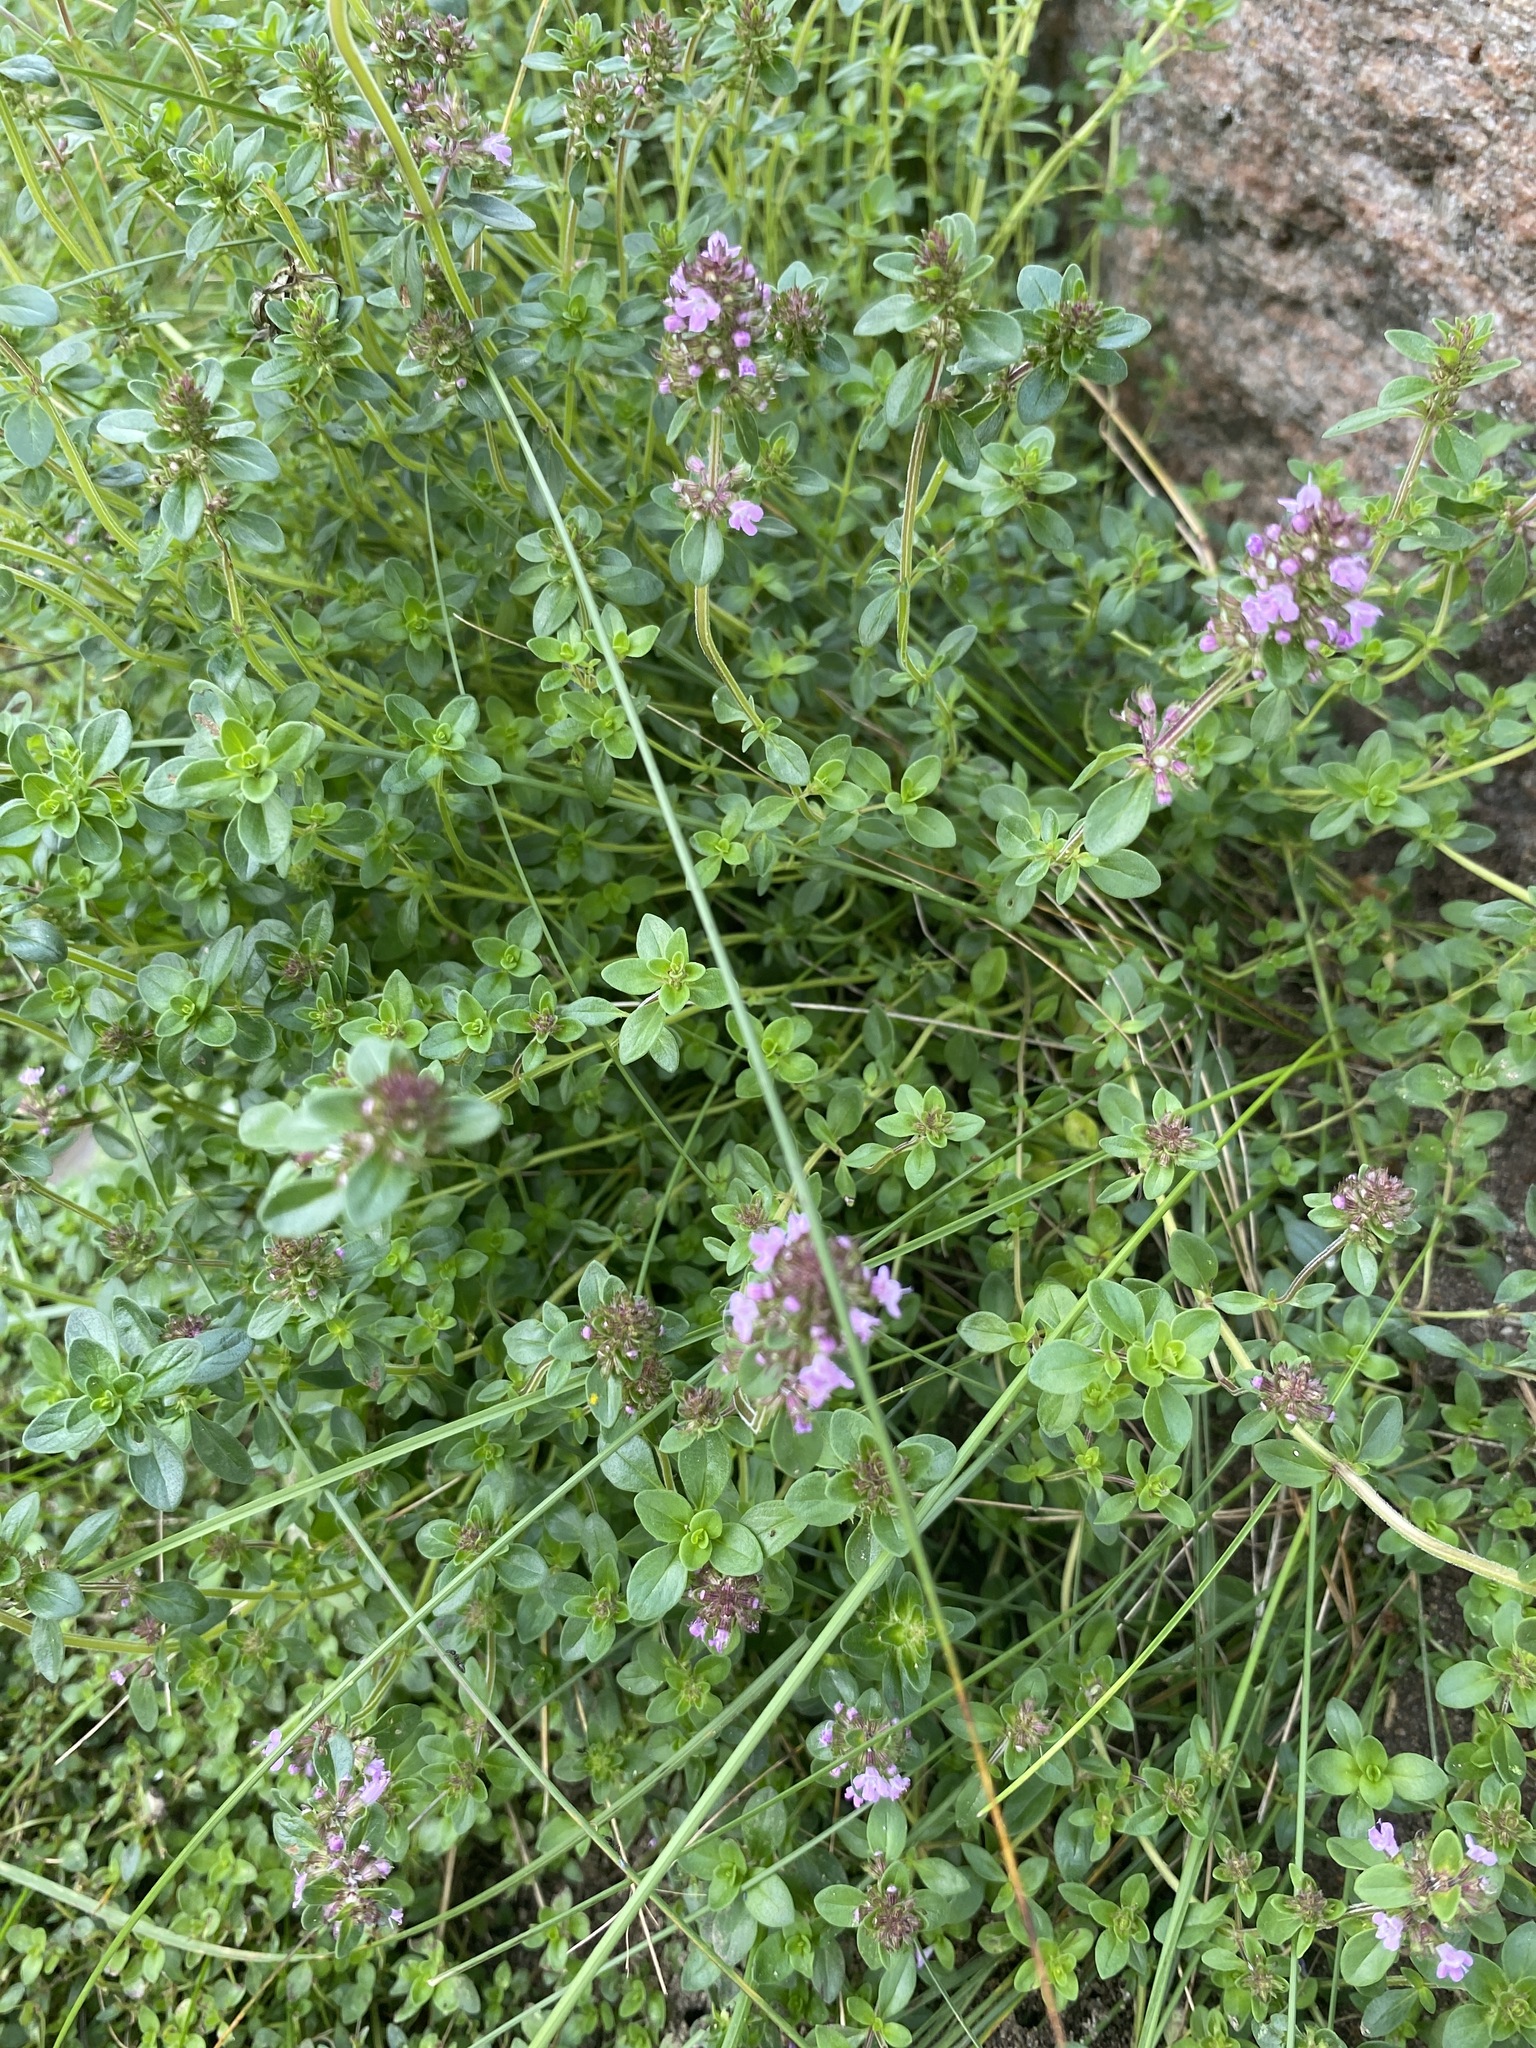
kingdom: Plantae
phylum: Tracheophyta
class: Magnoliopsida
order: Lamiales
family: Lamiaceae
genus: Thymus
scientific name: Thymus pulegioides
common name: Large thyme
